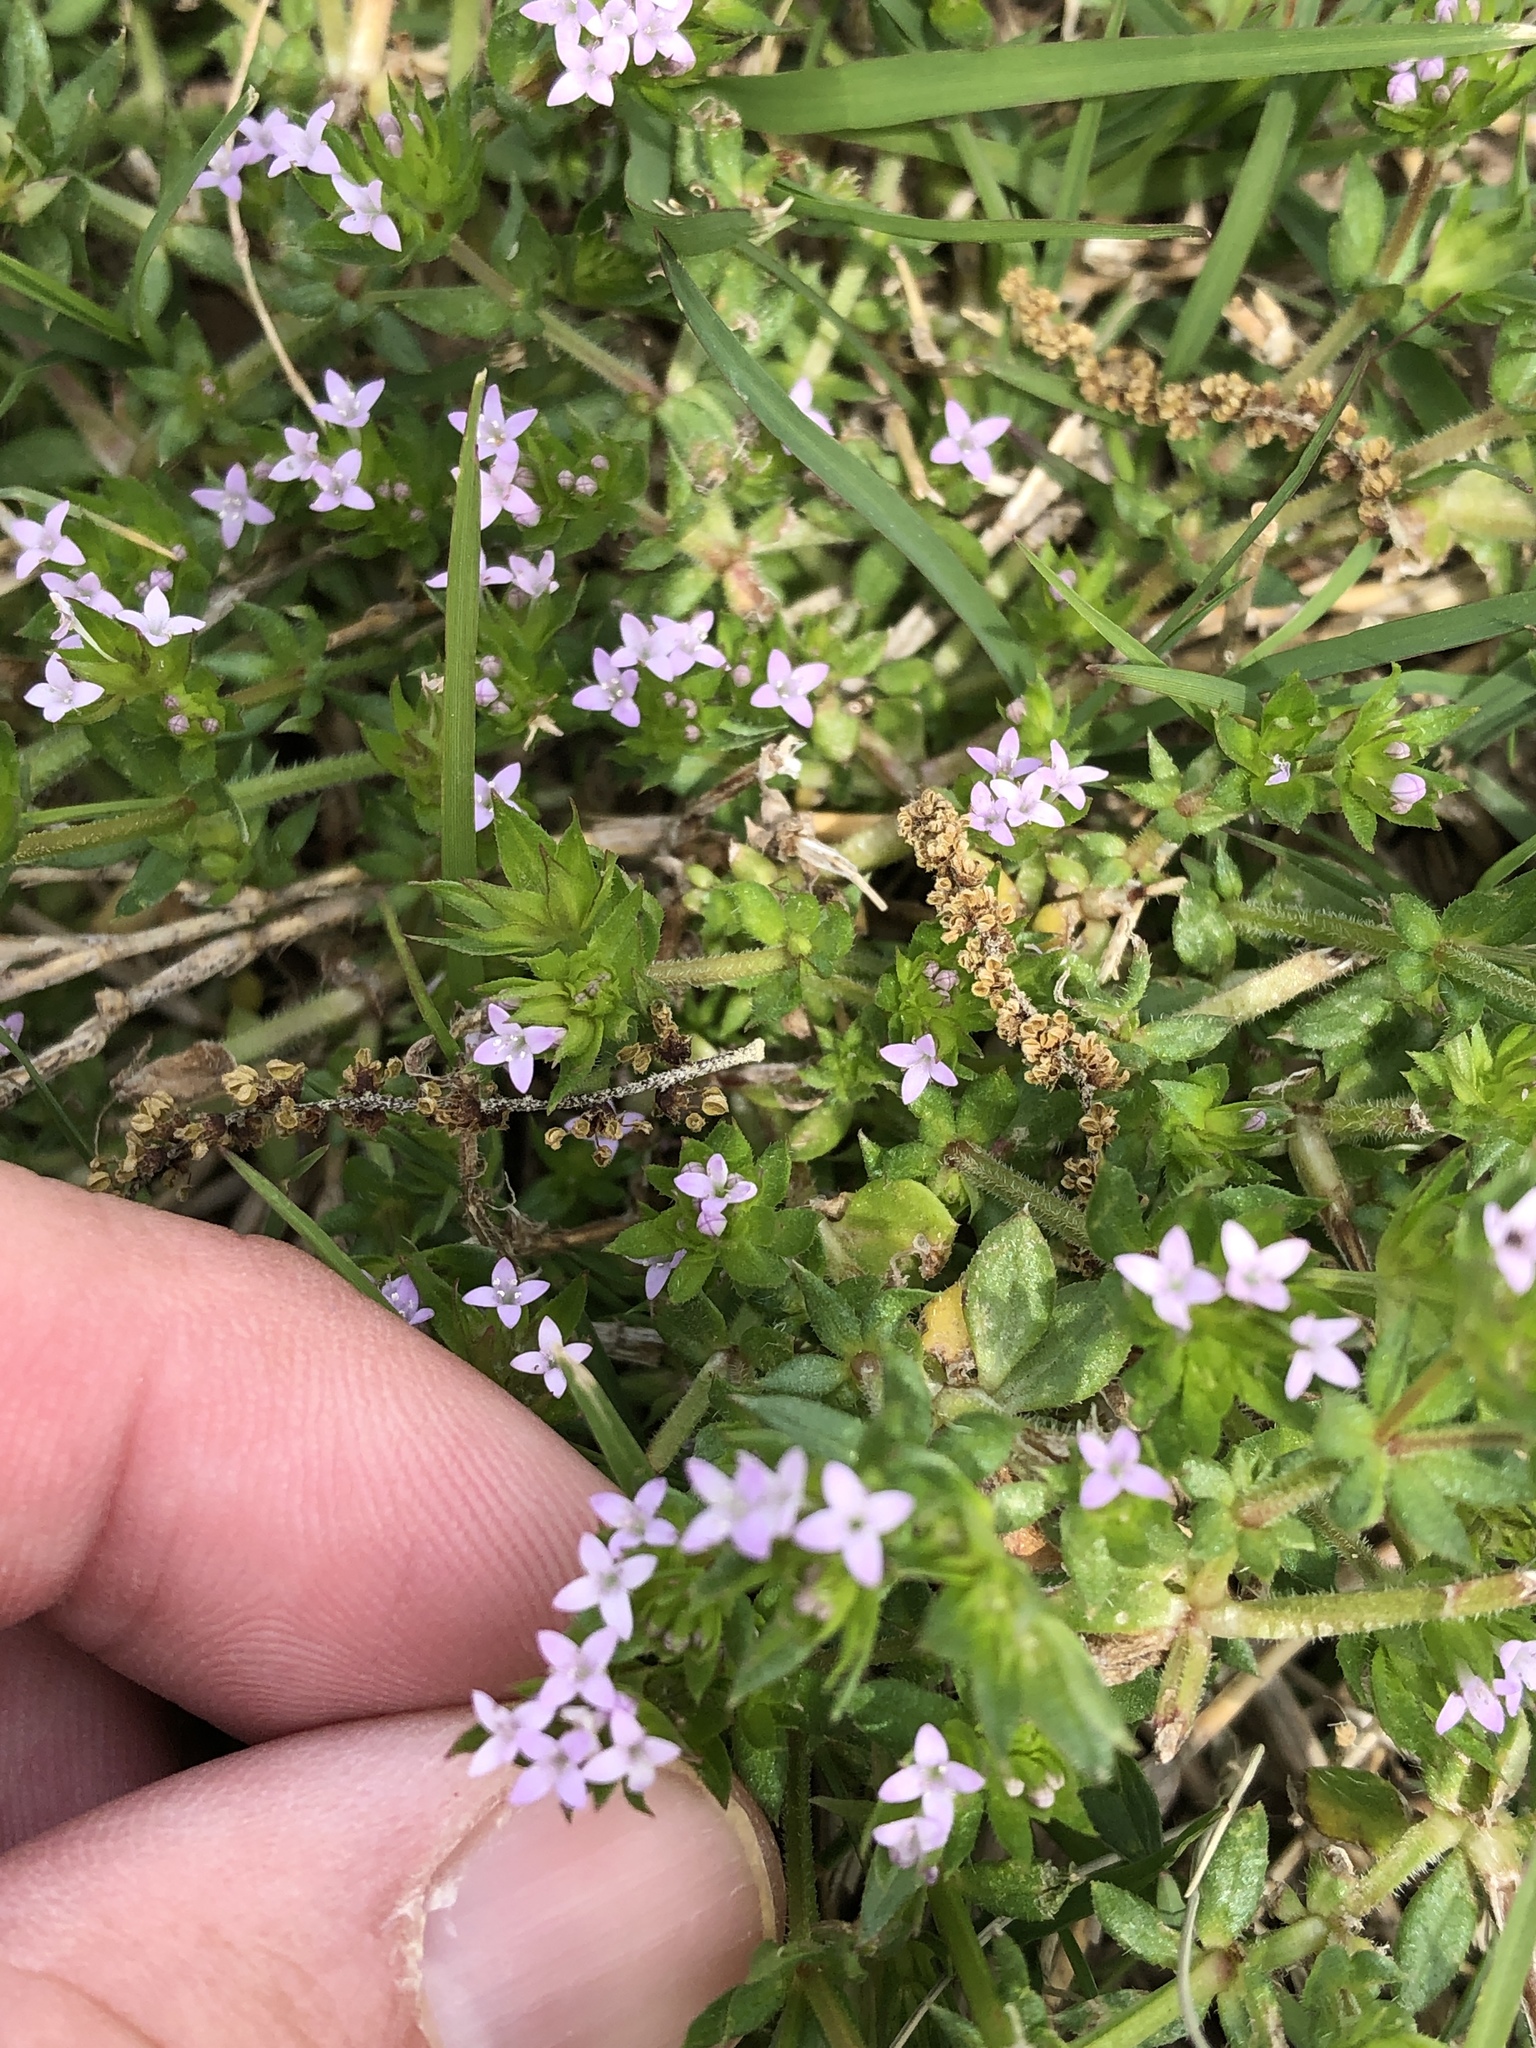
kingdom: Plantae
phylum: Tracheophyta
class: Magnoliopsida
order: Gentianales
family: Rubiaceae
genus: Sherardia
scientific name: Sherardia arvensis
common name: Field madder
